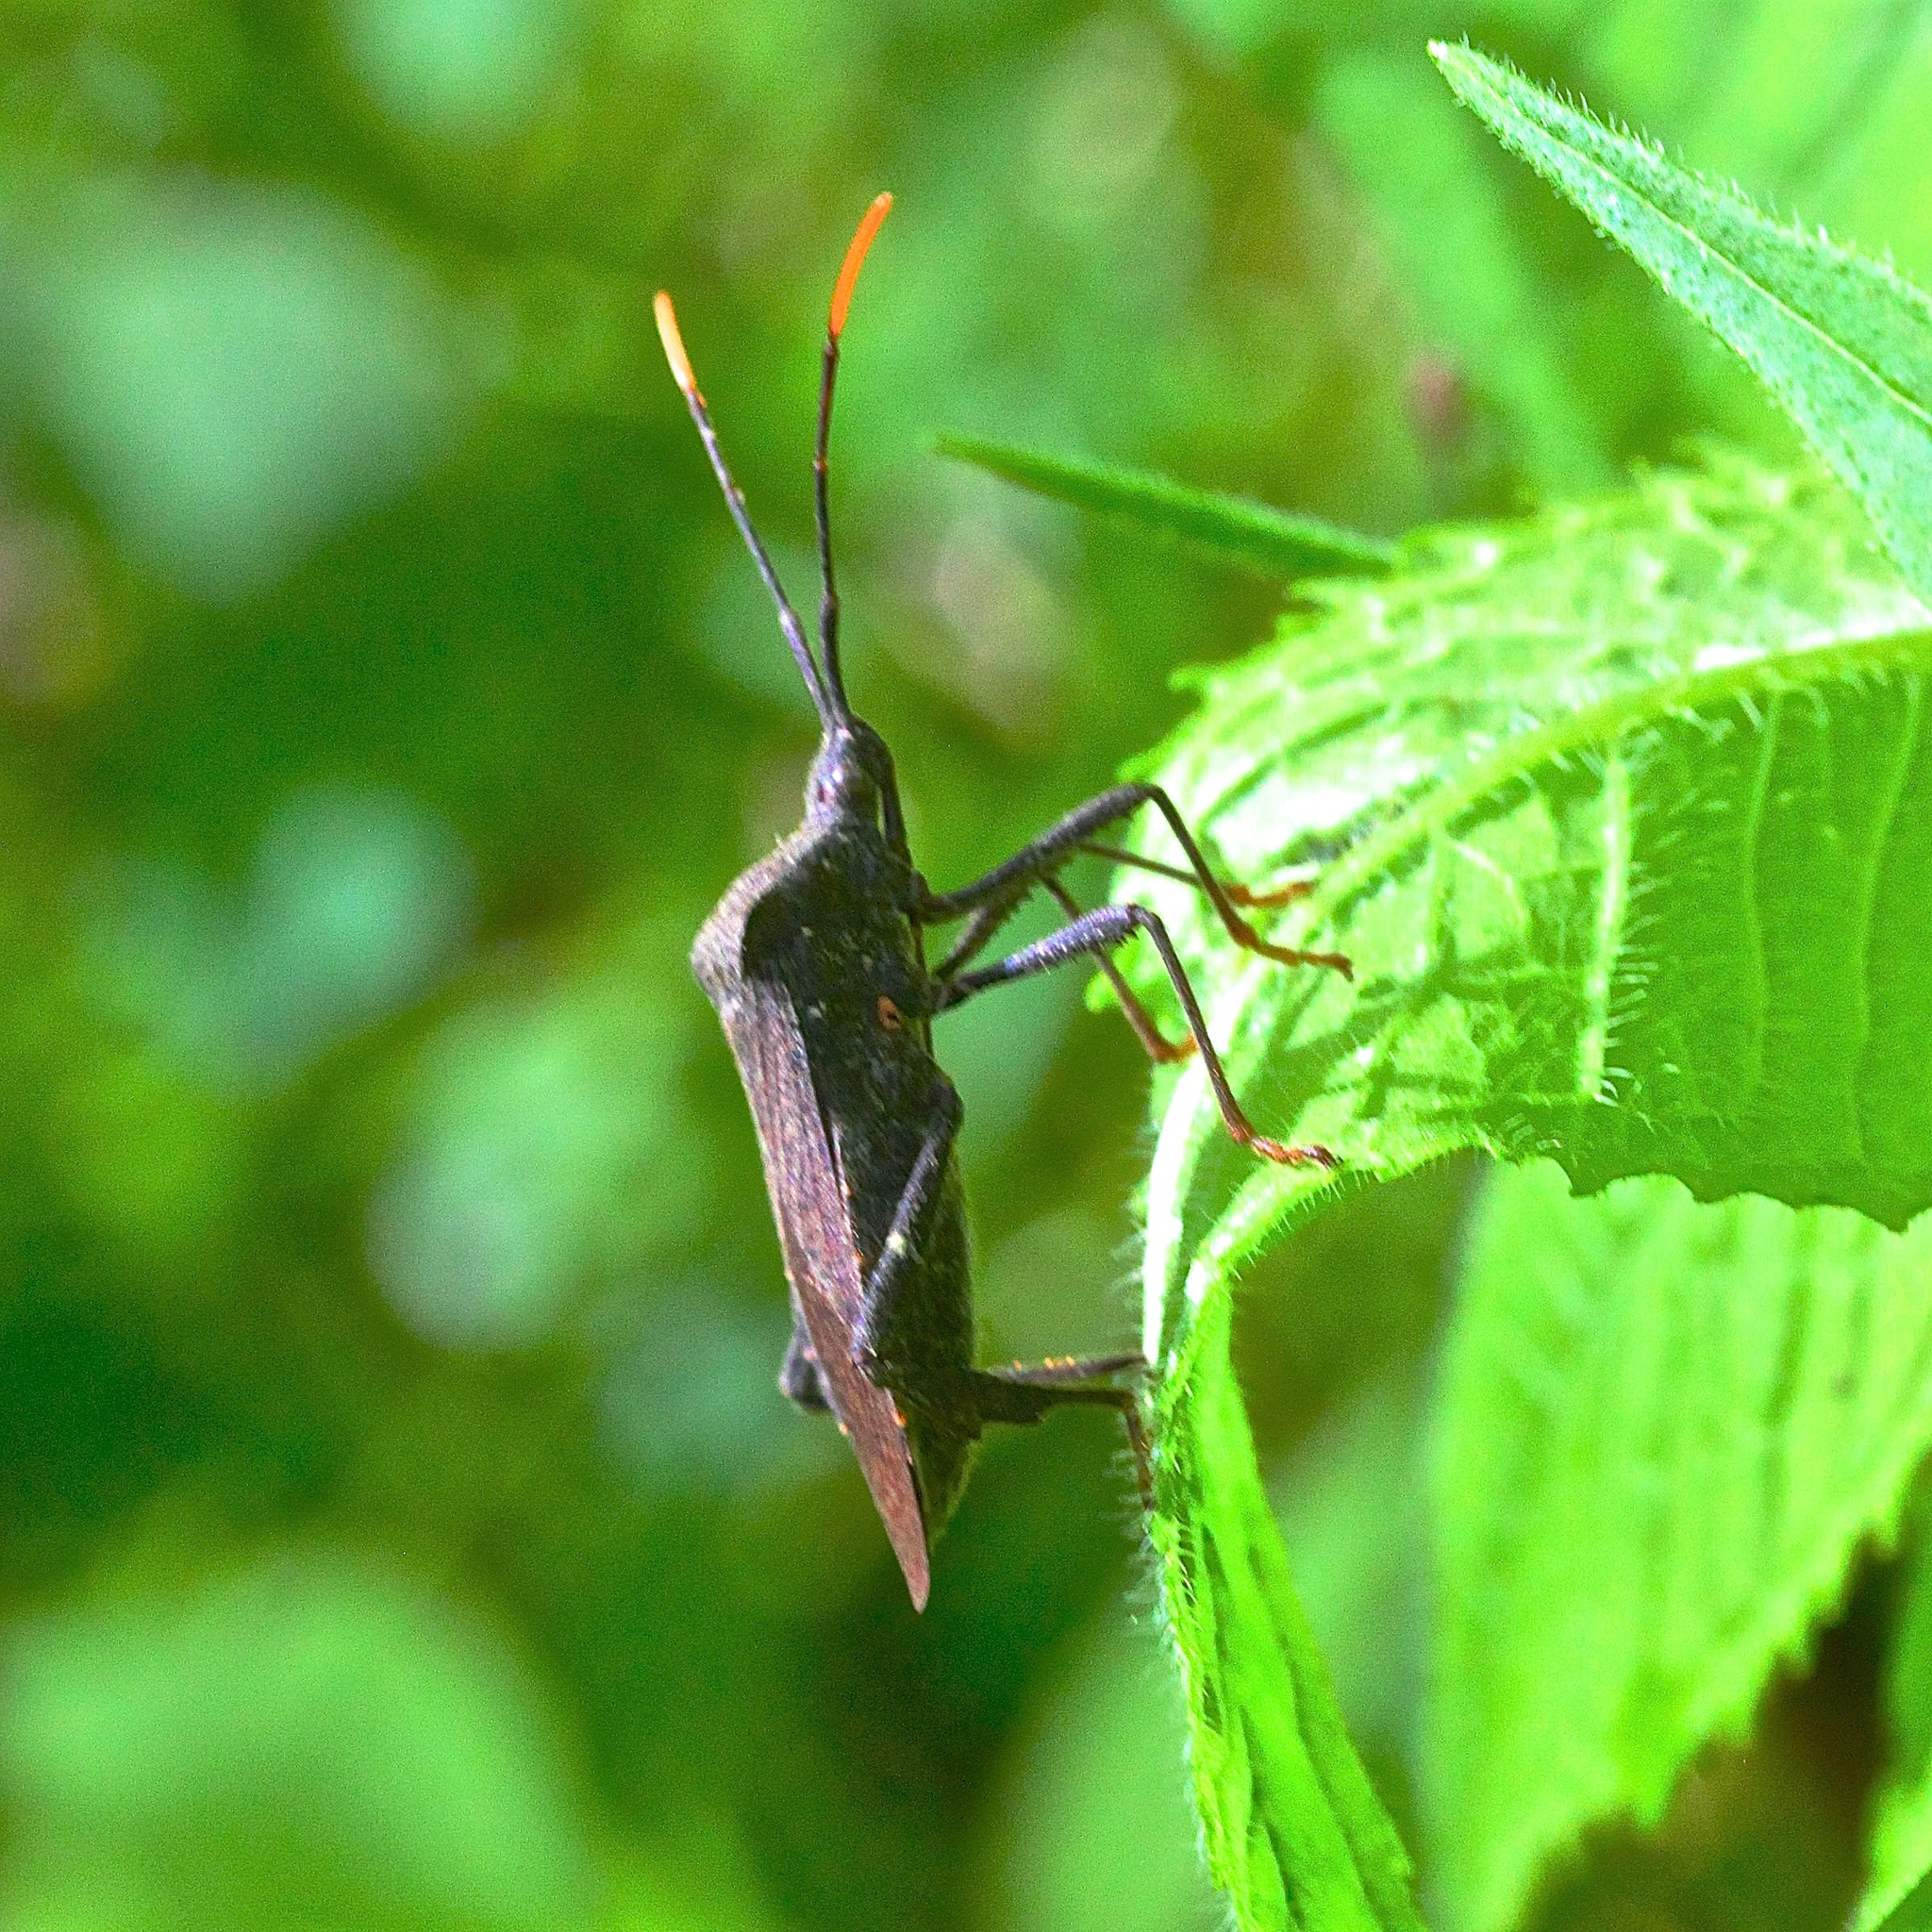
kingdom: Animalia
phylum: Arthropoda
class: Insecta
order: Hemiptera
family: Coreidae
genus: Acanthocephala
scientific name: Acanthocephala terminalis
